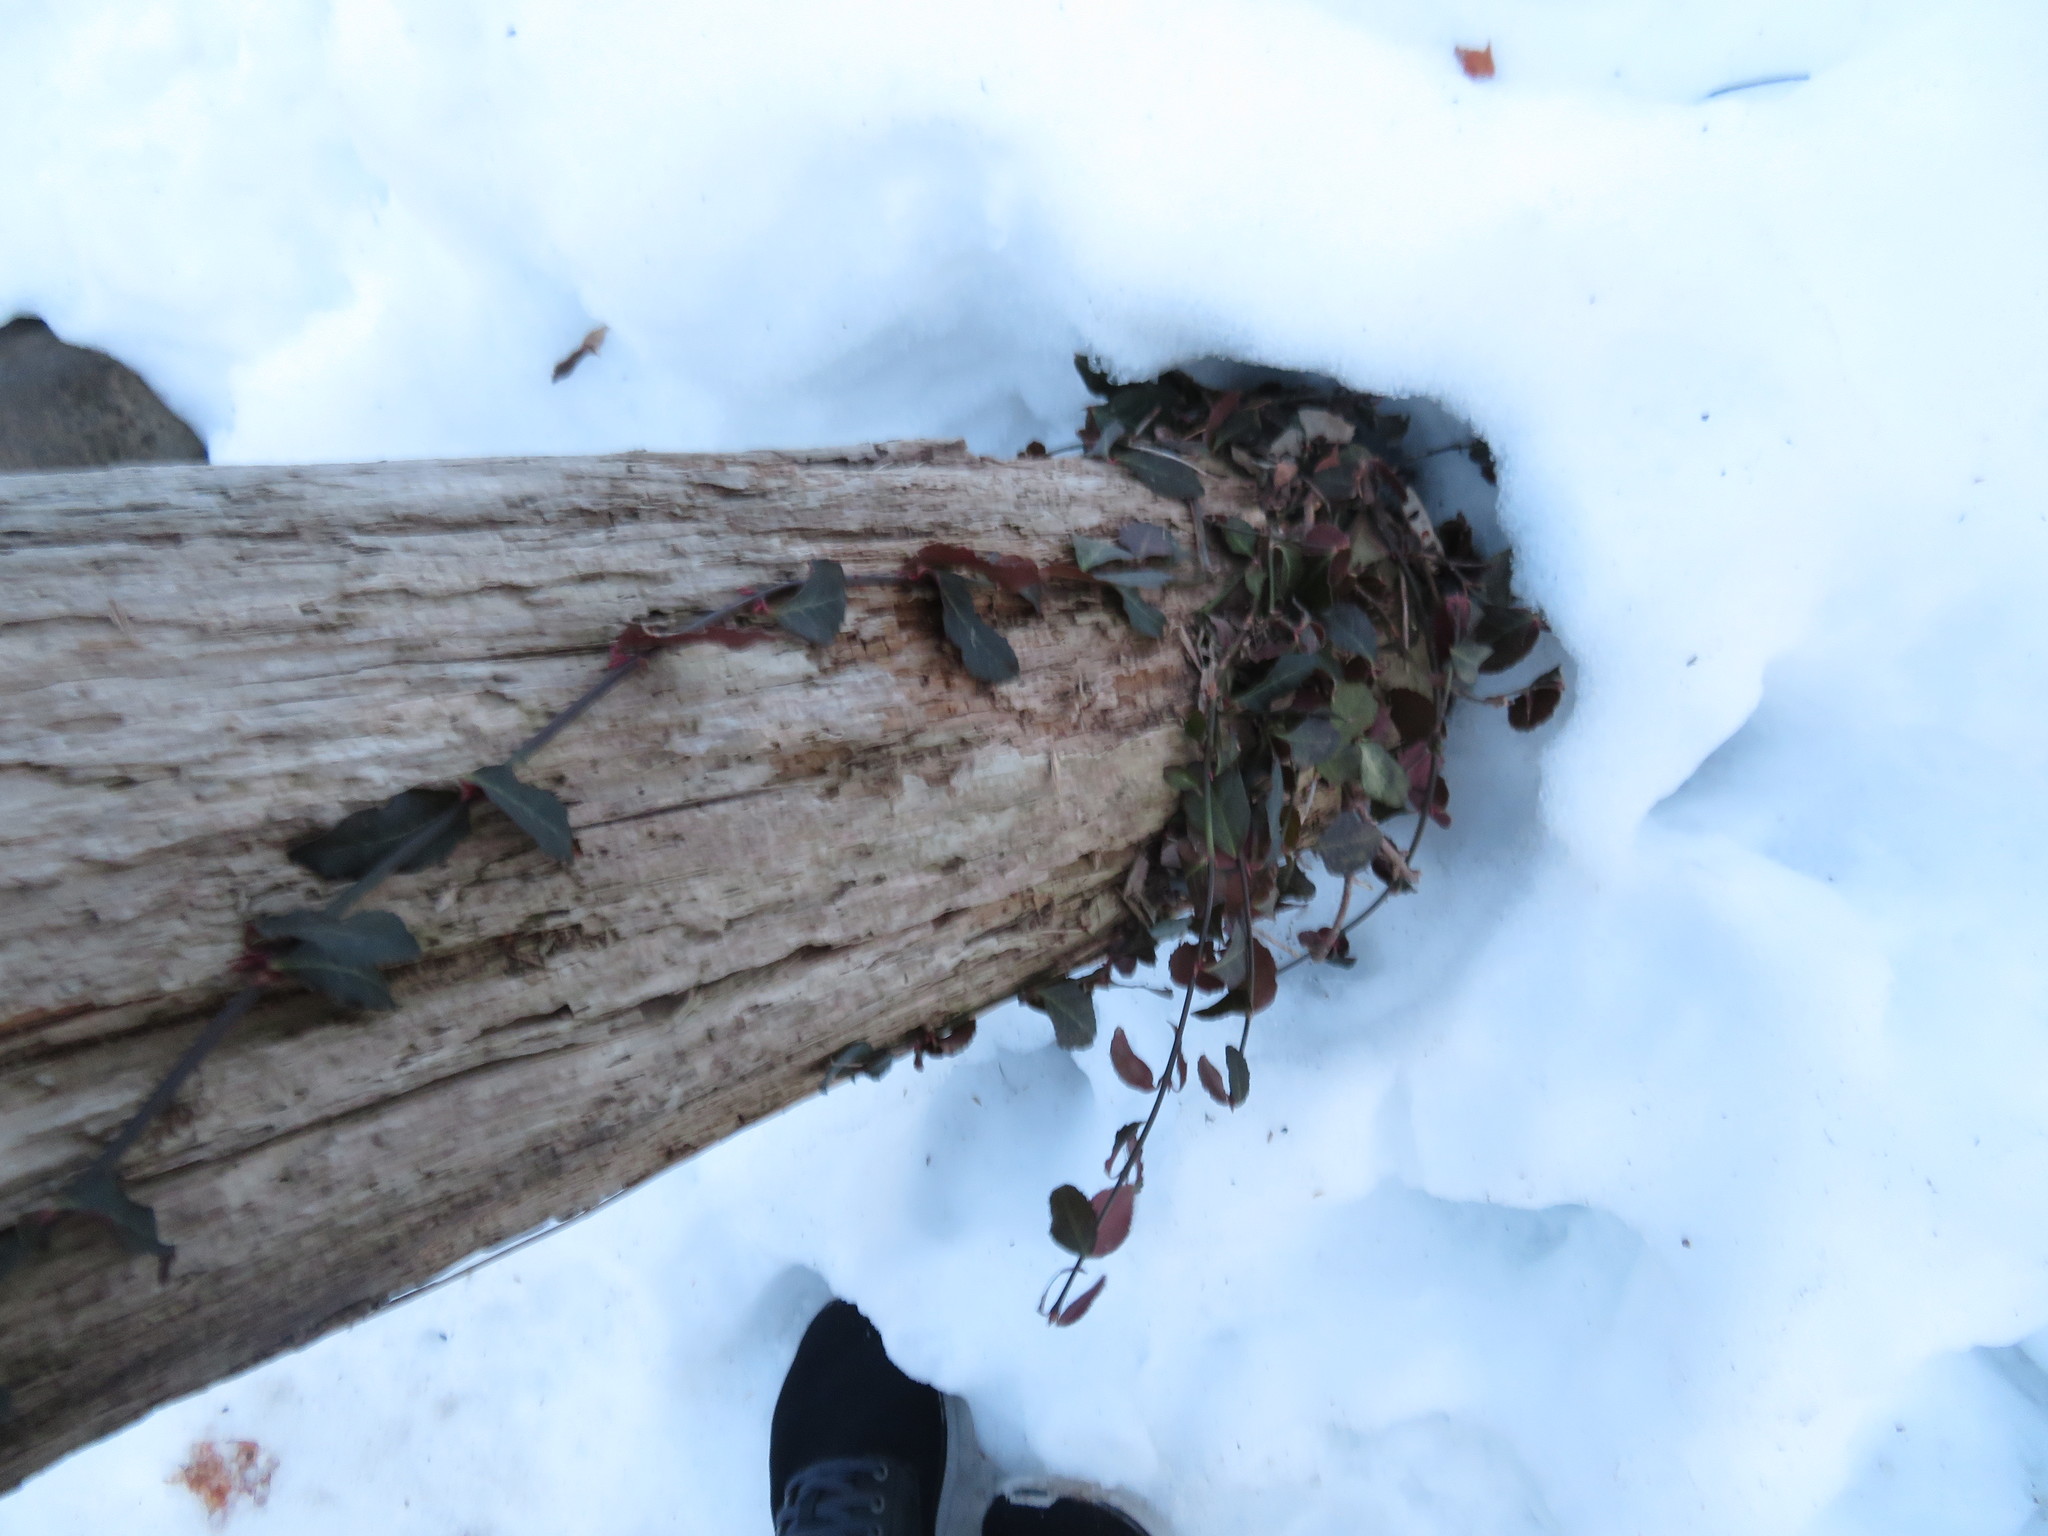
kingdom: Plantae
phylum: Tracheophyta
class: Magnoliopsida
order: Celastrales
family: Celastraceae
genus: Euonymus
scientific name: Euonymus fortunei
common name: Climbing euonymus
